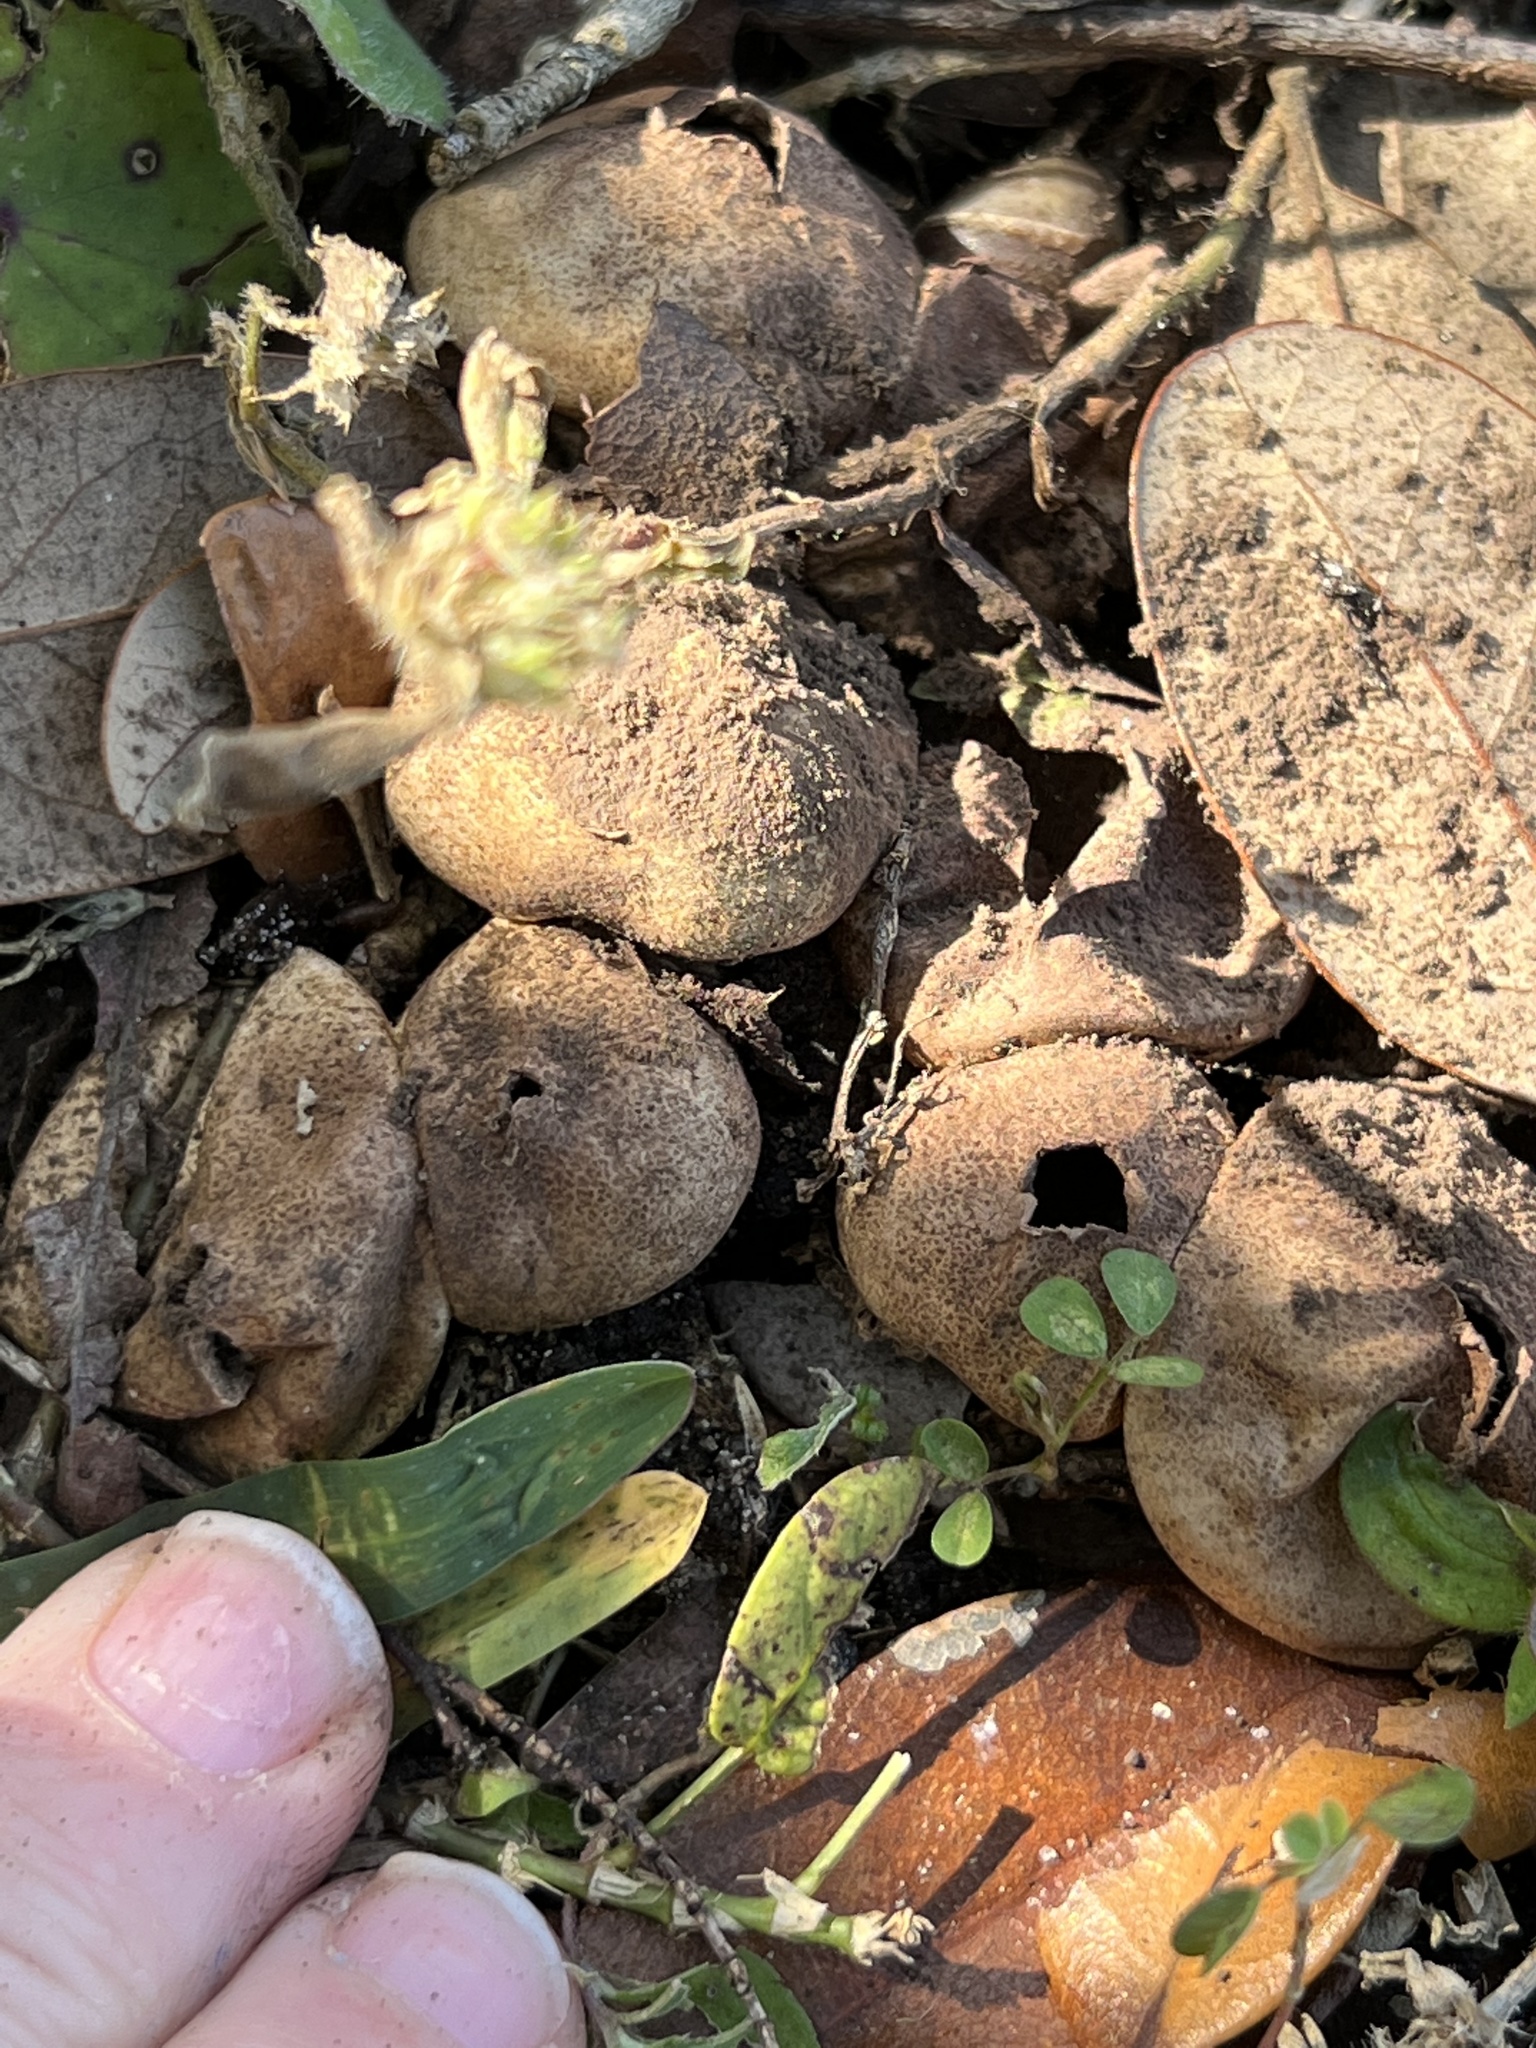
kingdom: Fungi
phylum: Basidiomycota
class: Agaricomycetes
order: Boletales
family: Sclerodermataceae
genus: Scleroderma
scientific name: Scleroderma citrinum
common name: Common earthball
